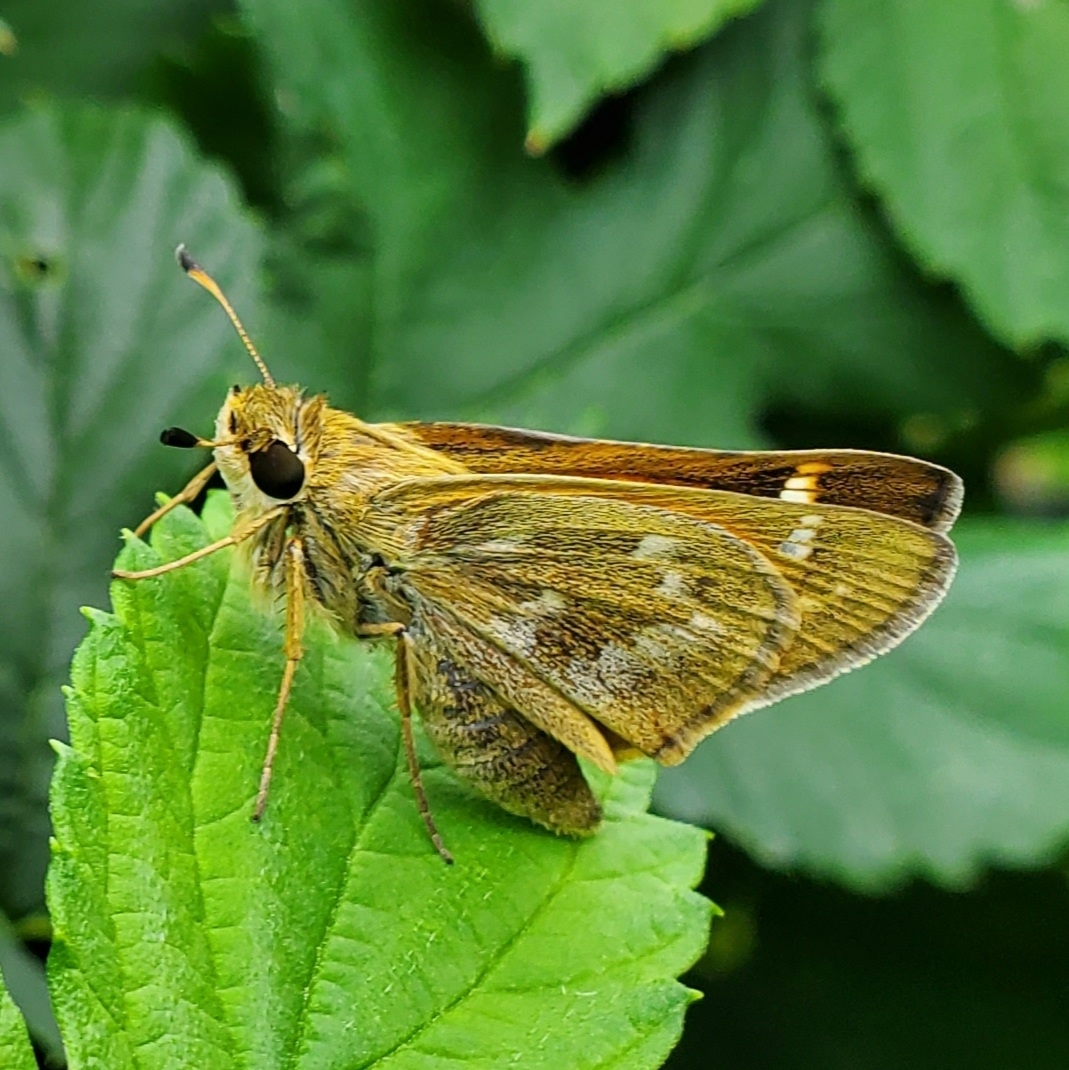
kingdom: Animalia
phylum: Arthropoda
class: Insecta
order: Lepidoptera
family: Hesperiidae
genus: Atalopedes
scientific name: Atalopedes
